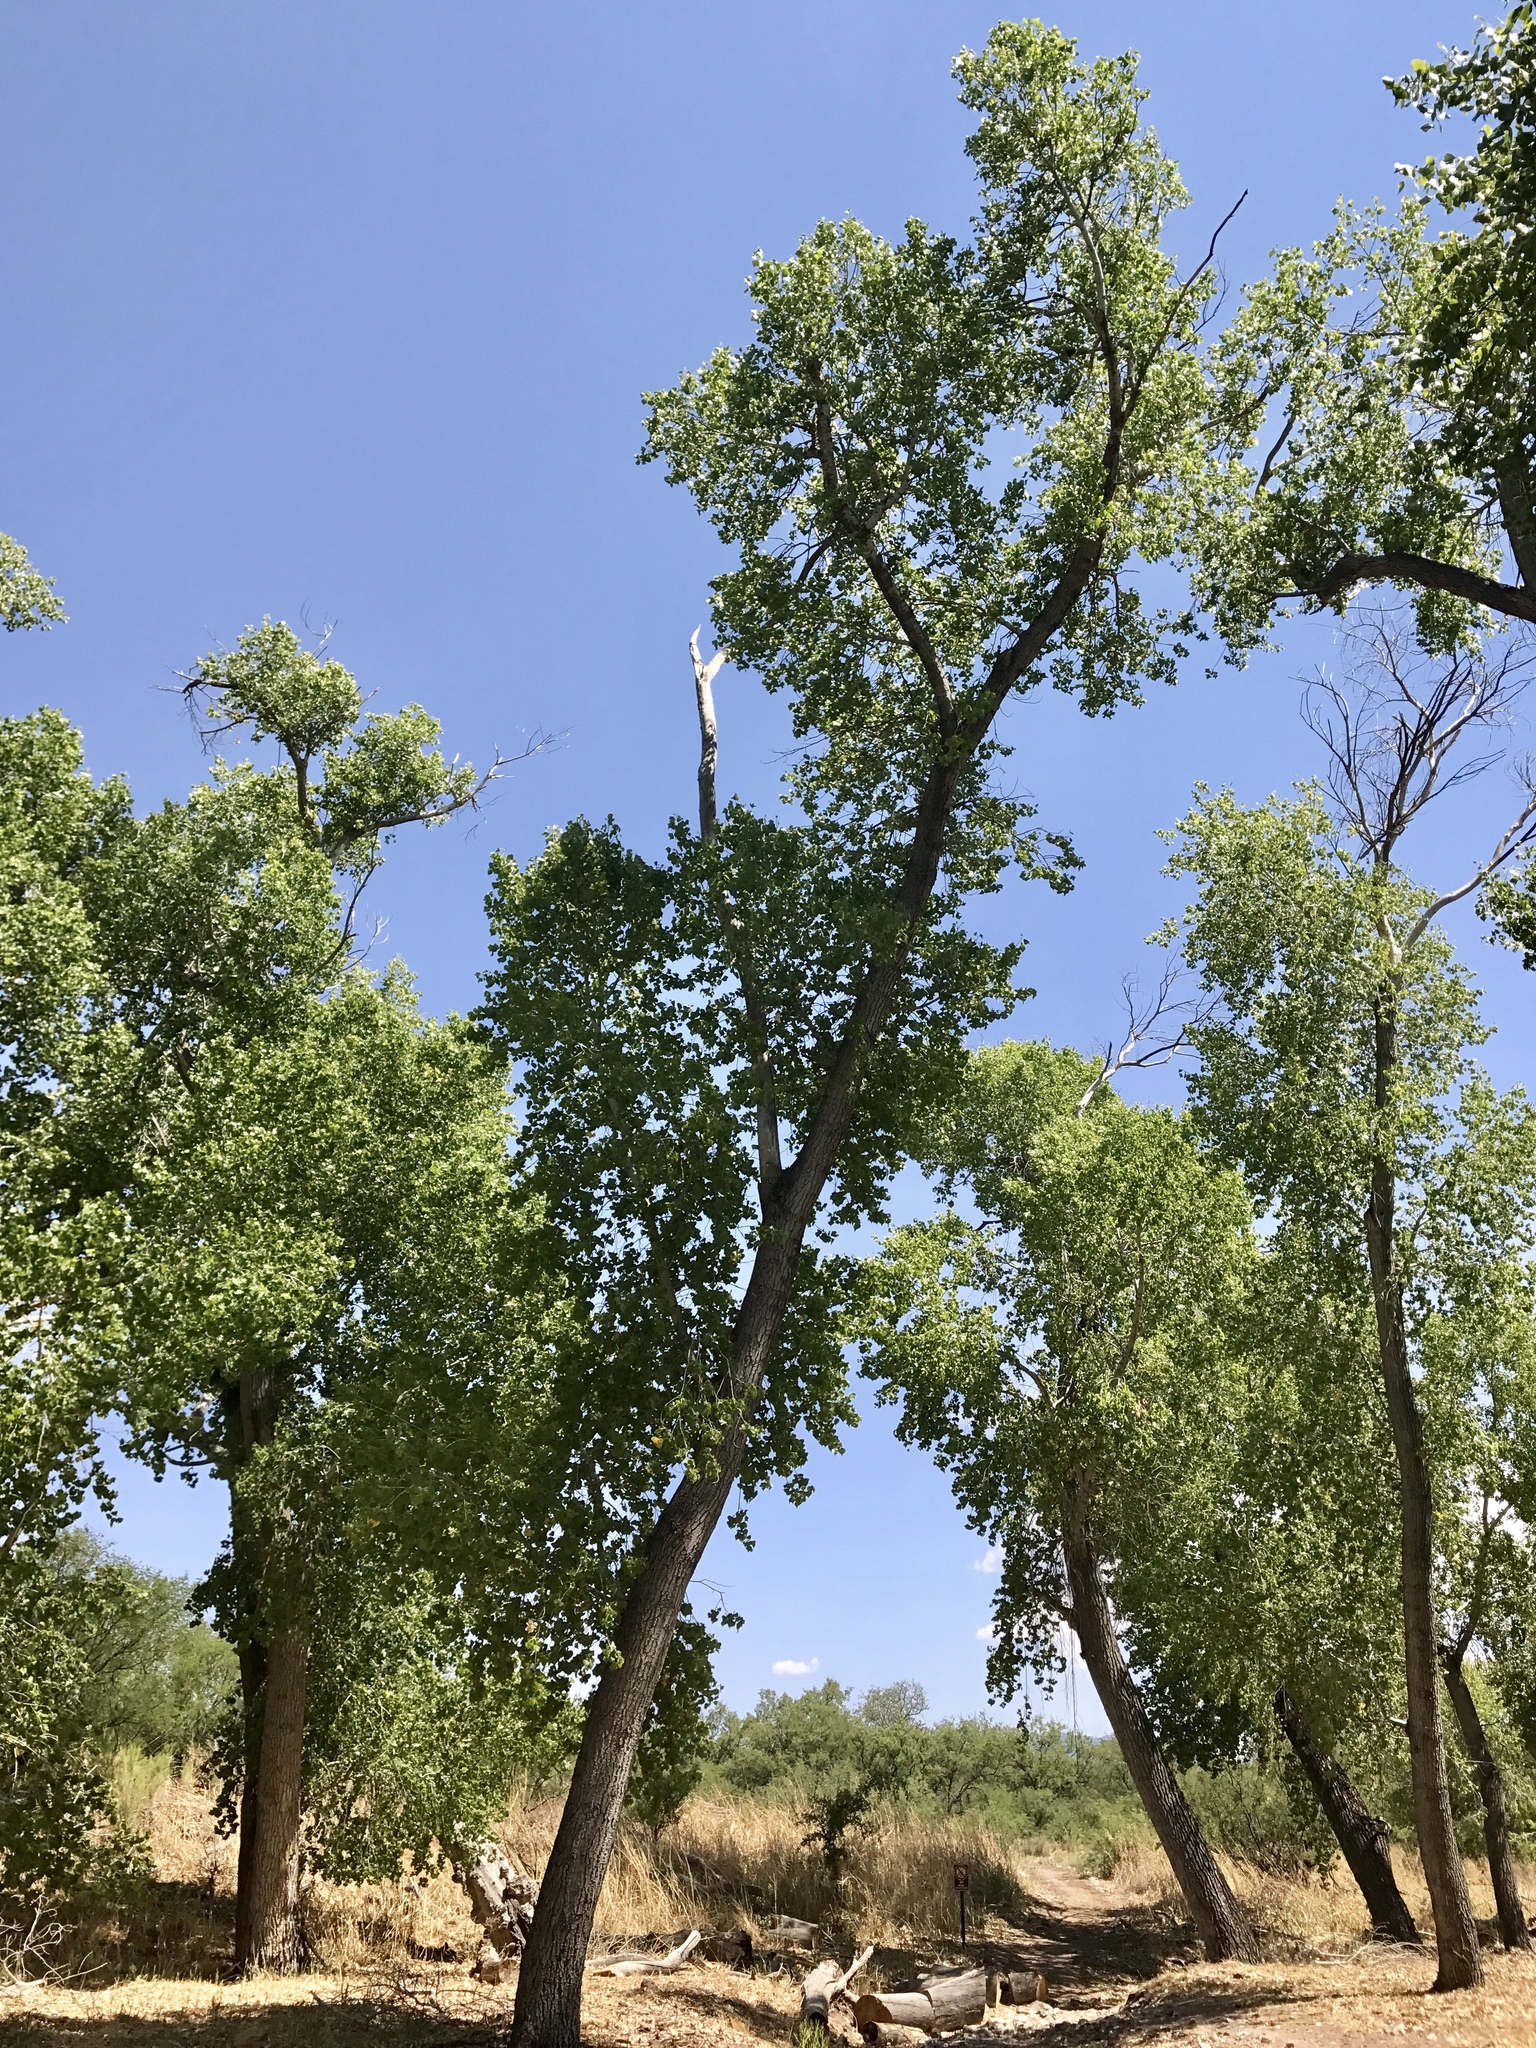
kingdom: Plantae
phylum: Tracheophyta
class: Magnoliopsida
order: Malpighiales
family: Salicaceae
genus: Populus
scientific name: Populus fremontii
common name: Fremont's cottonwood
